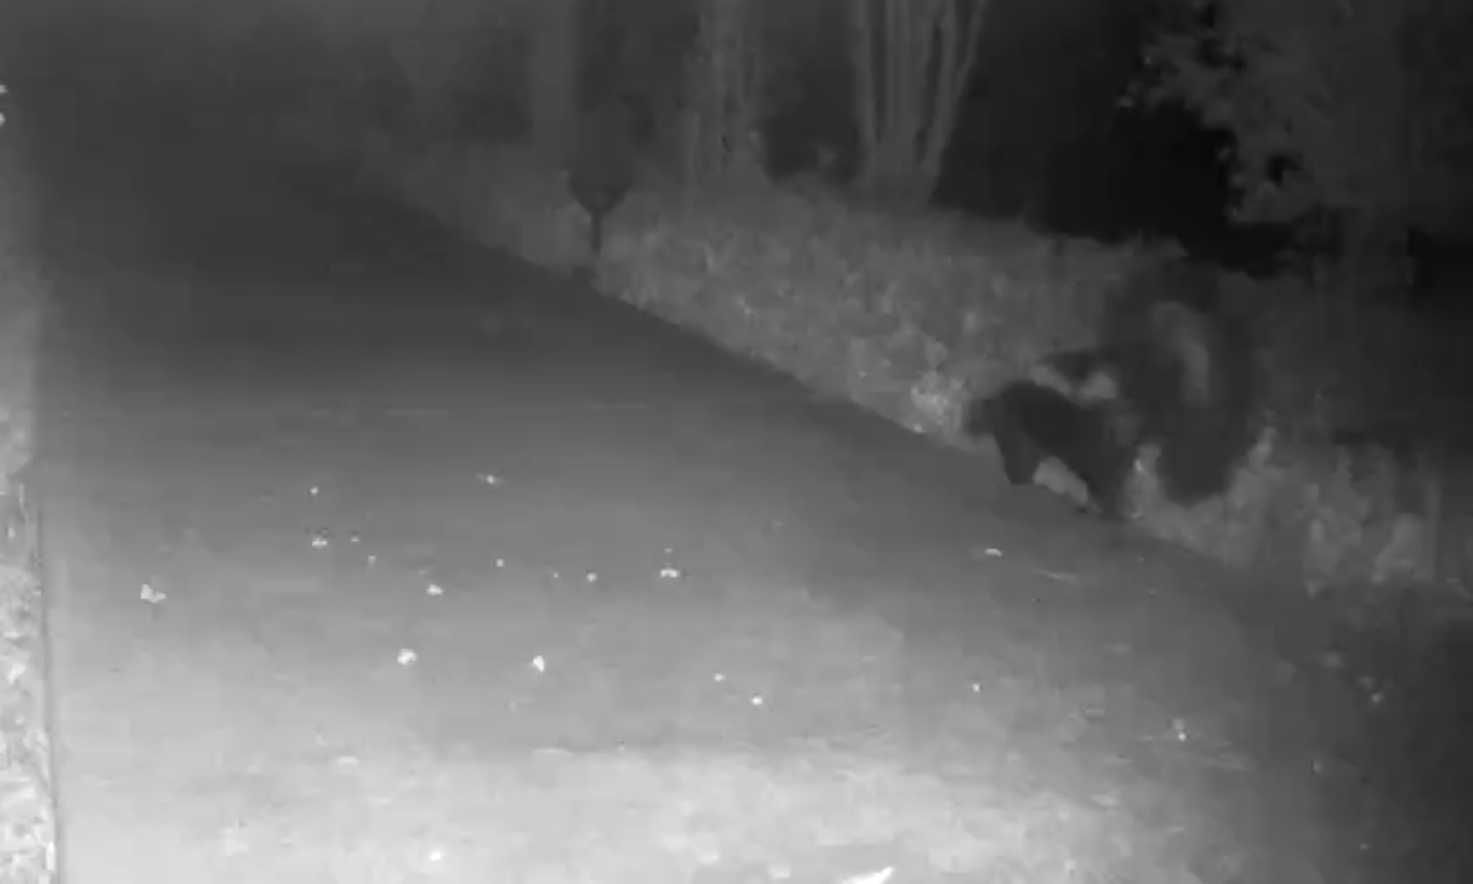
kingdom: Animalia
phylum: Chordata
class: Mammalia
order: Carnivora
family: Mephitidae
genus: Mephitis
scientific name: Mephitis mephitis
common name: Striped skunk
